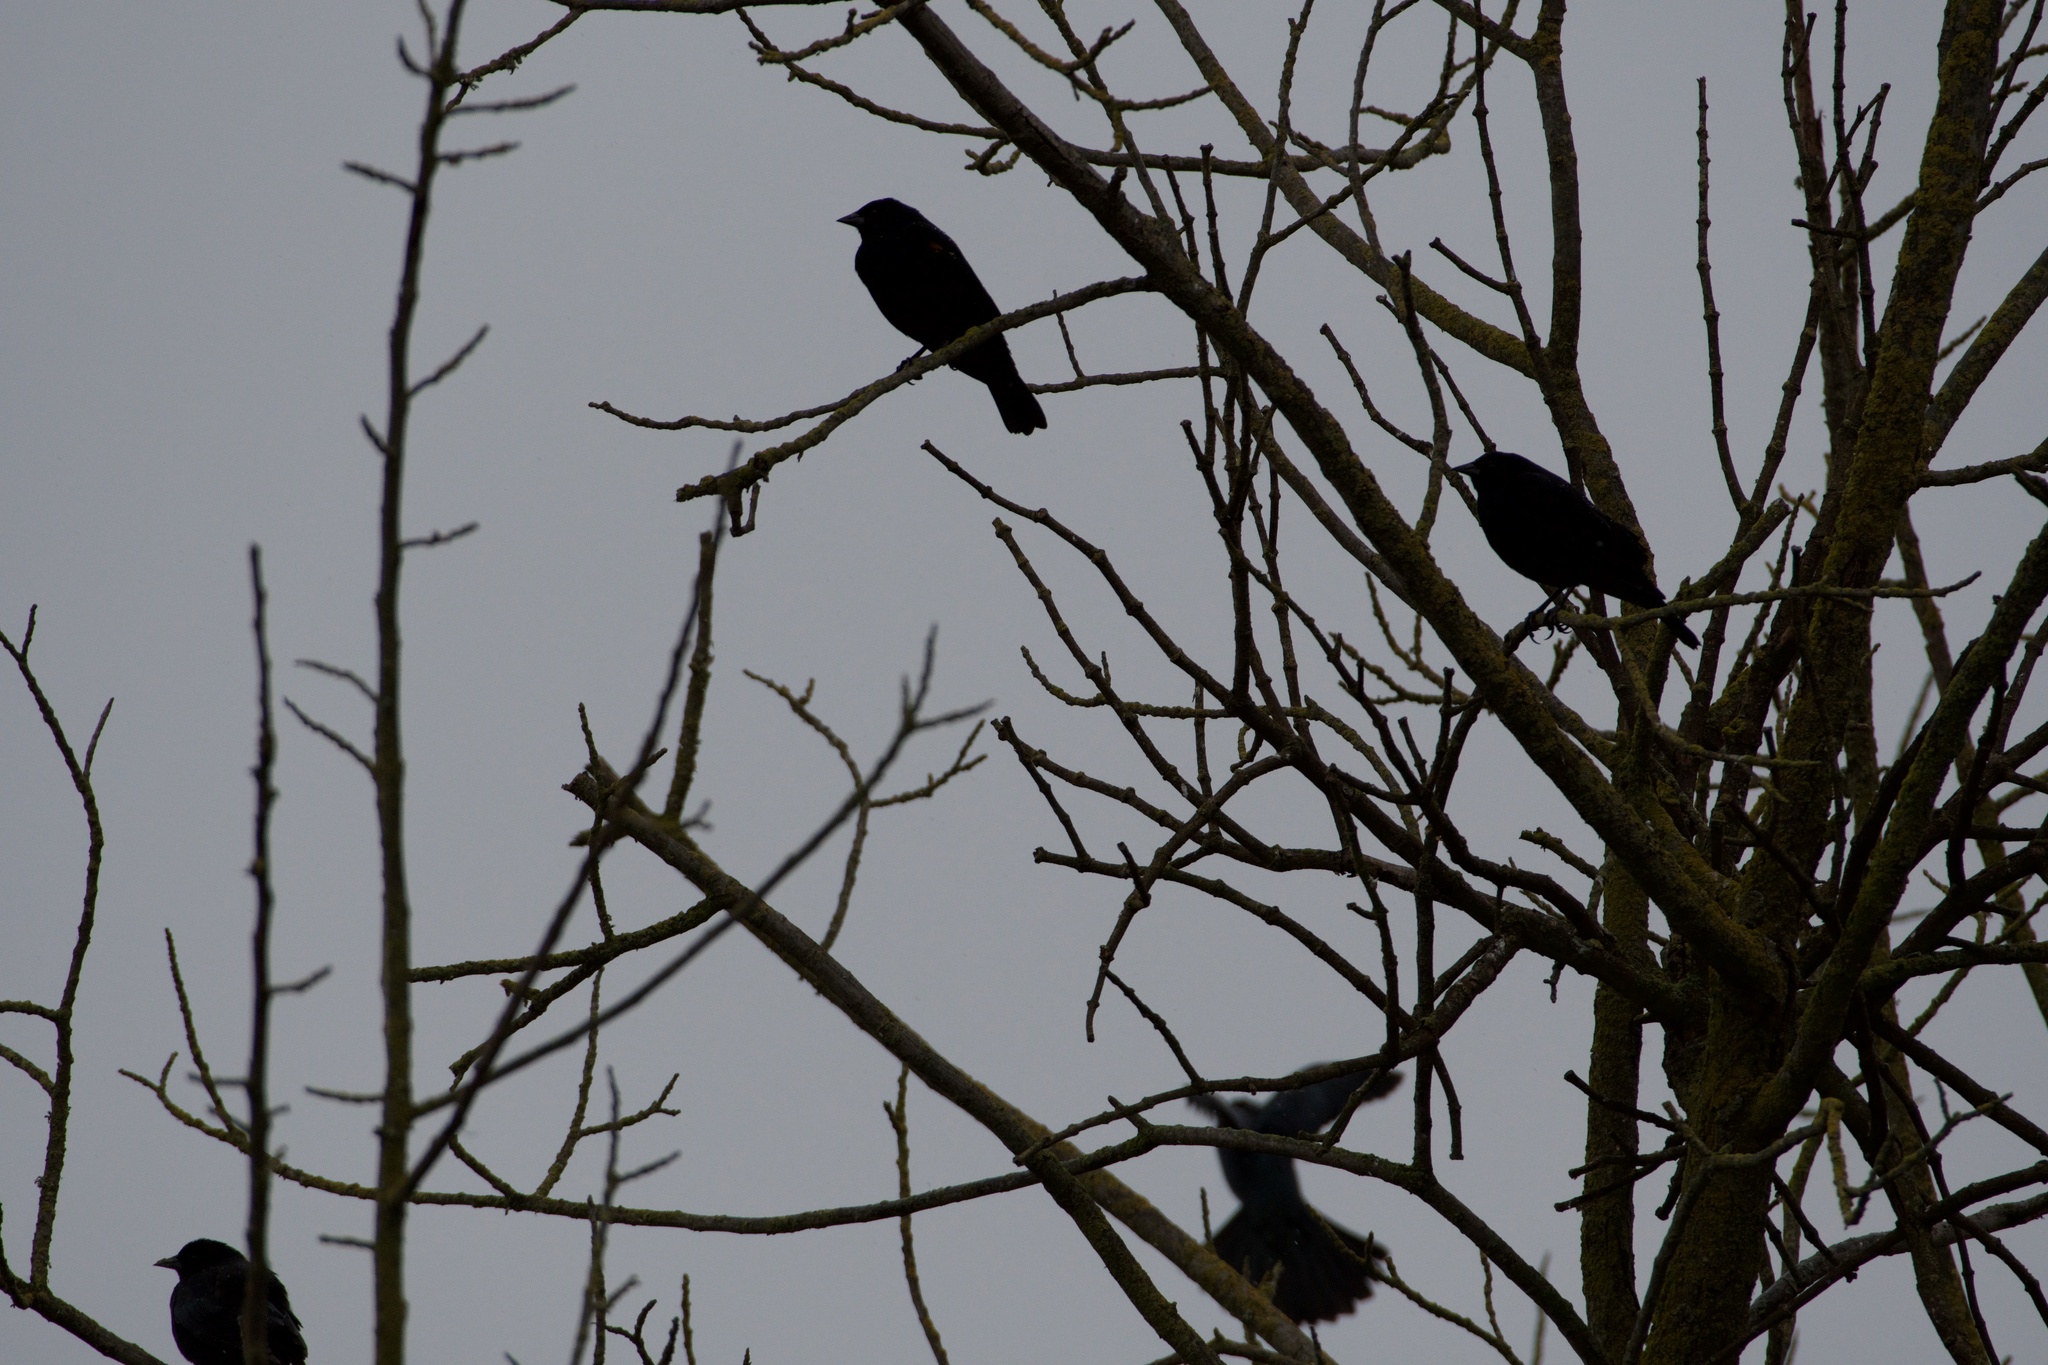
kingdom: Animalia
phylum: Chordata
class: Aves
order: Passeriformes
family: Icteridae
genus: Agelaius
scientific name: Agelaius phoeniceus
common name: Red-winged blackbird
